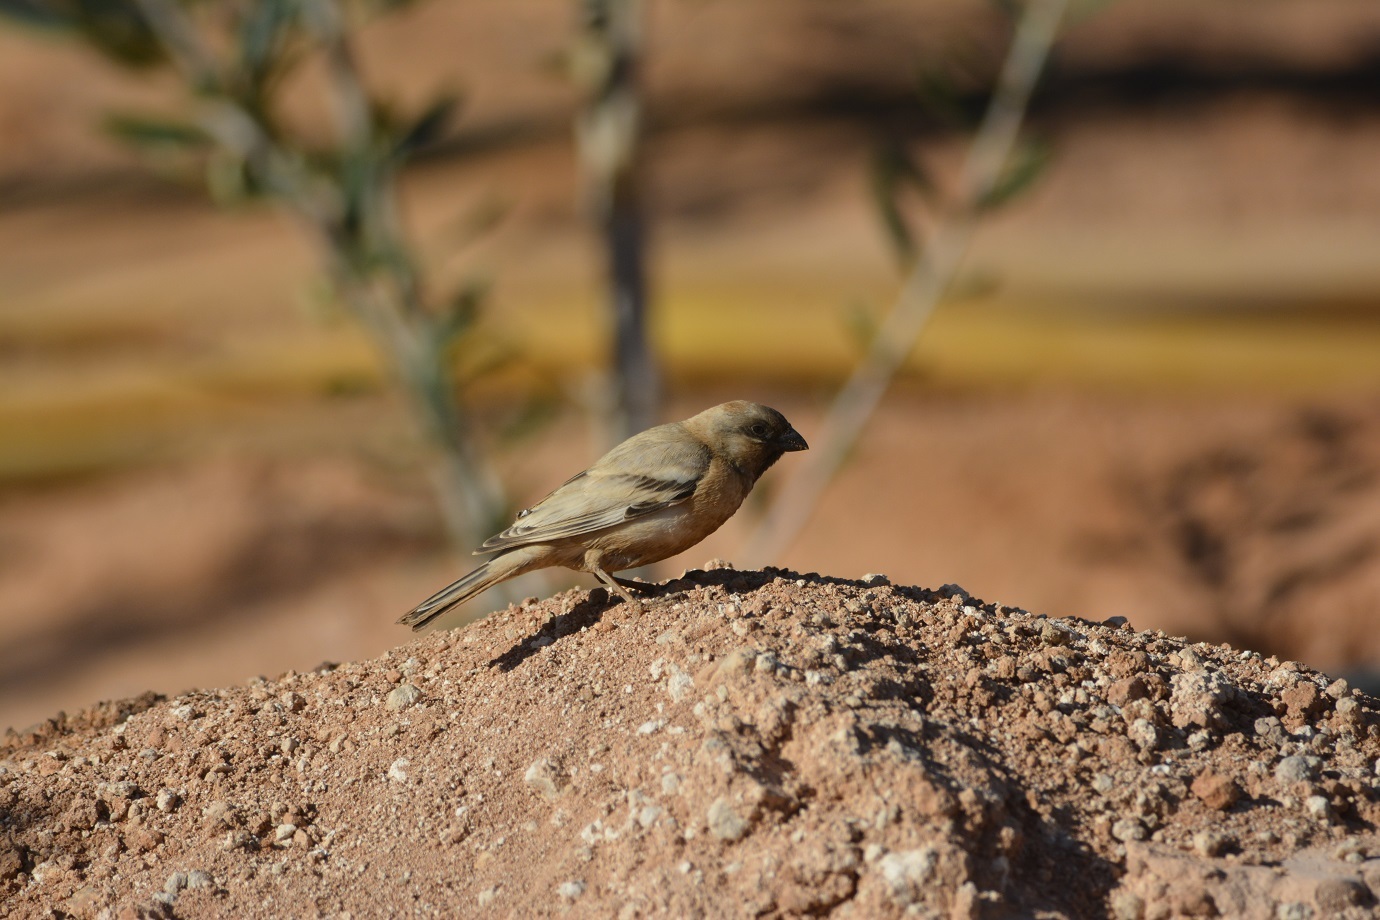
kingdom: Animalia
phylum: Chordata
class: Aves
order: Passeriformes
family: Passeridae
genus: Passer
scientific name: Passer simplex
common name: Desert sparrow
